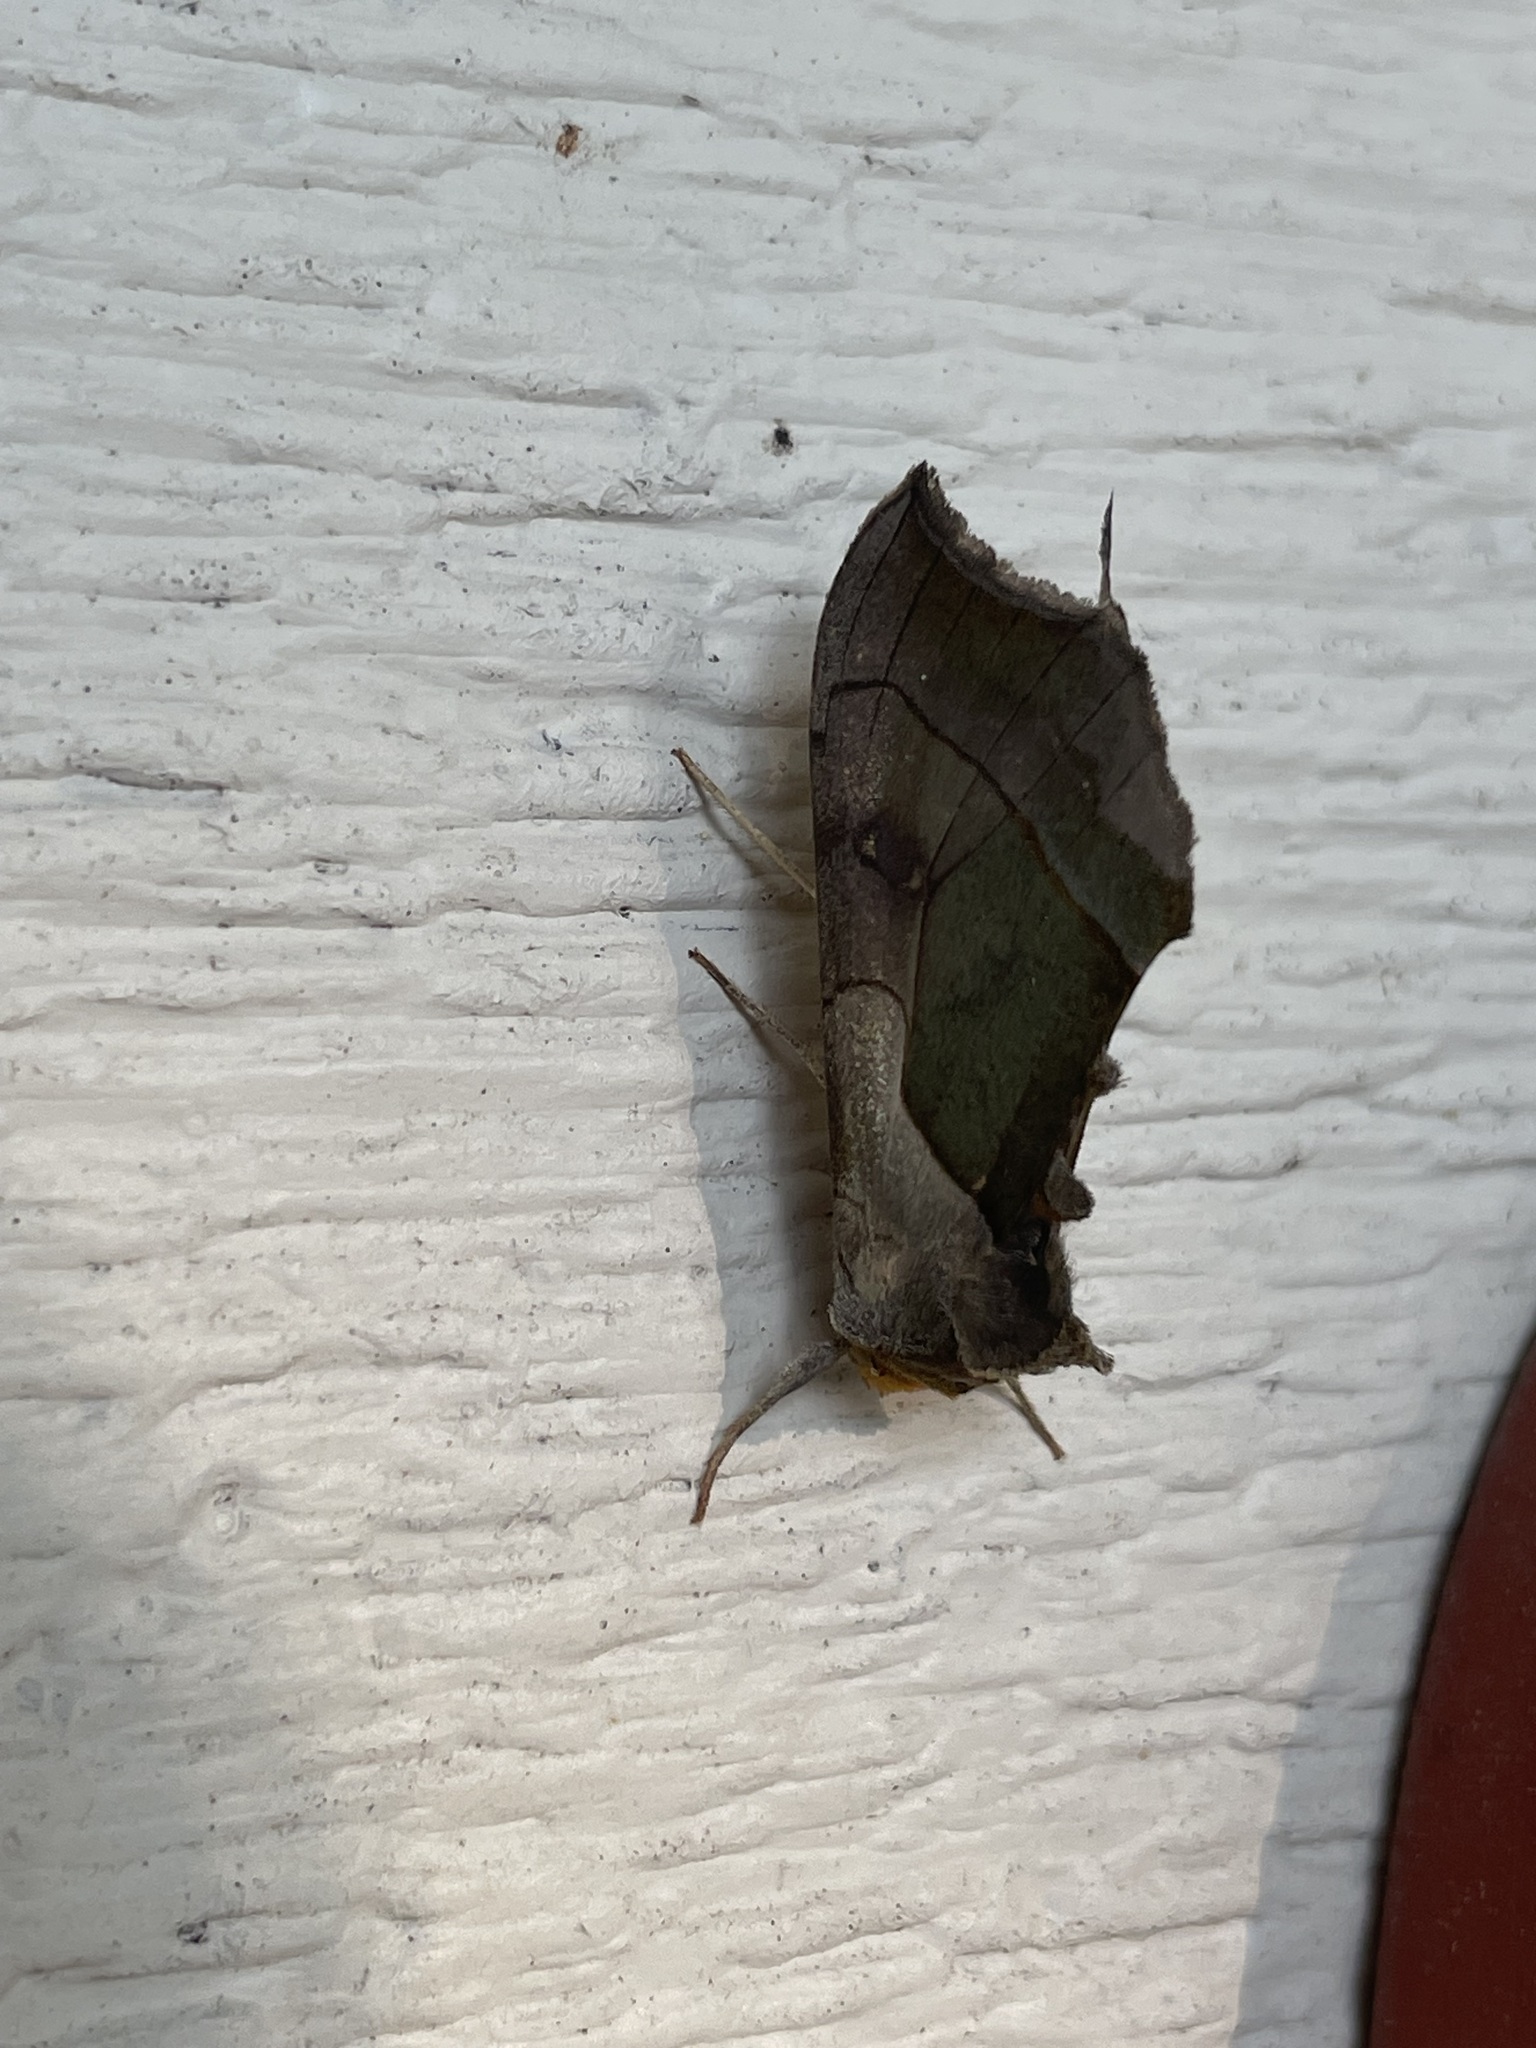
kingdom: Animalia
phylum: Arthropoda
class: Insecta
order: Lepidoptera
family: Noctuidae
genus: Diachrysia
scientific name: Diachrysia balluca
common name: Green-patched looper moth
